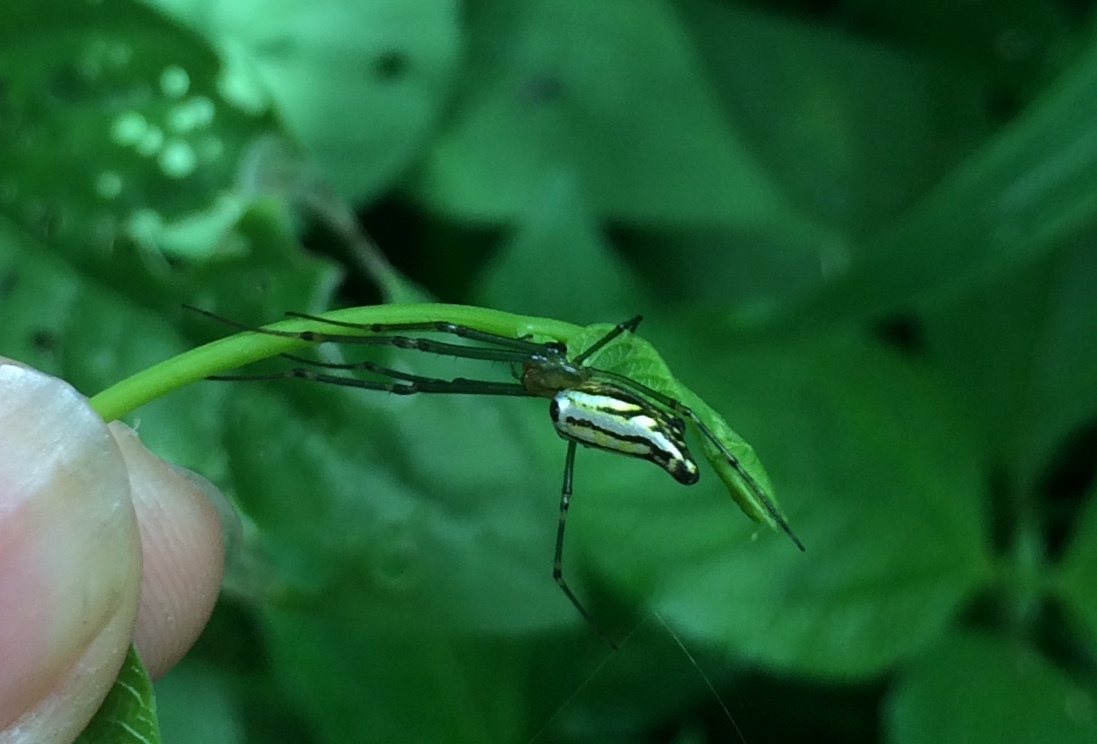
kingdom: Animalia
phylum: Arthropoda
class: Arachnida
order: Araneae
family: Tetragnathidae
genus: Leucauge
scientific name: Leucauge decorata
